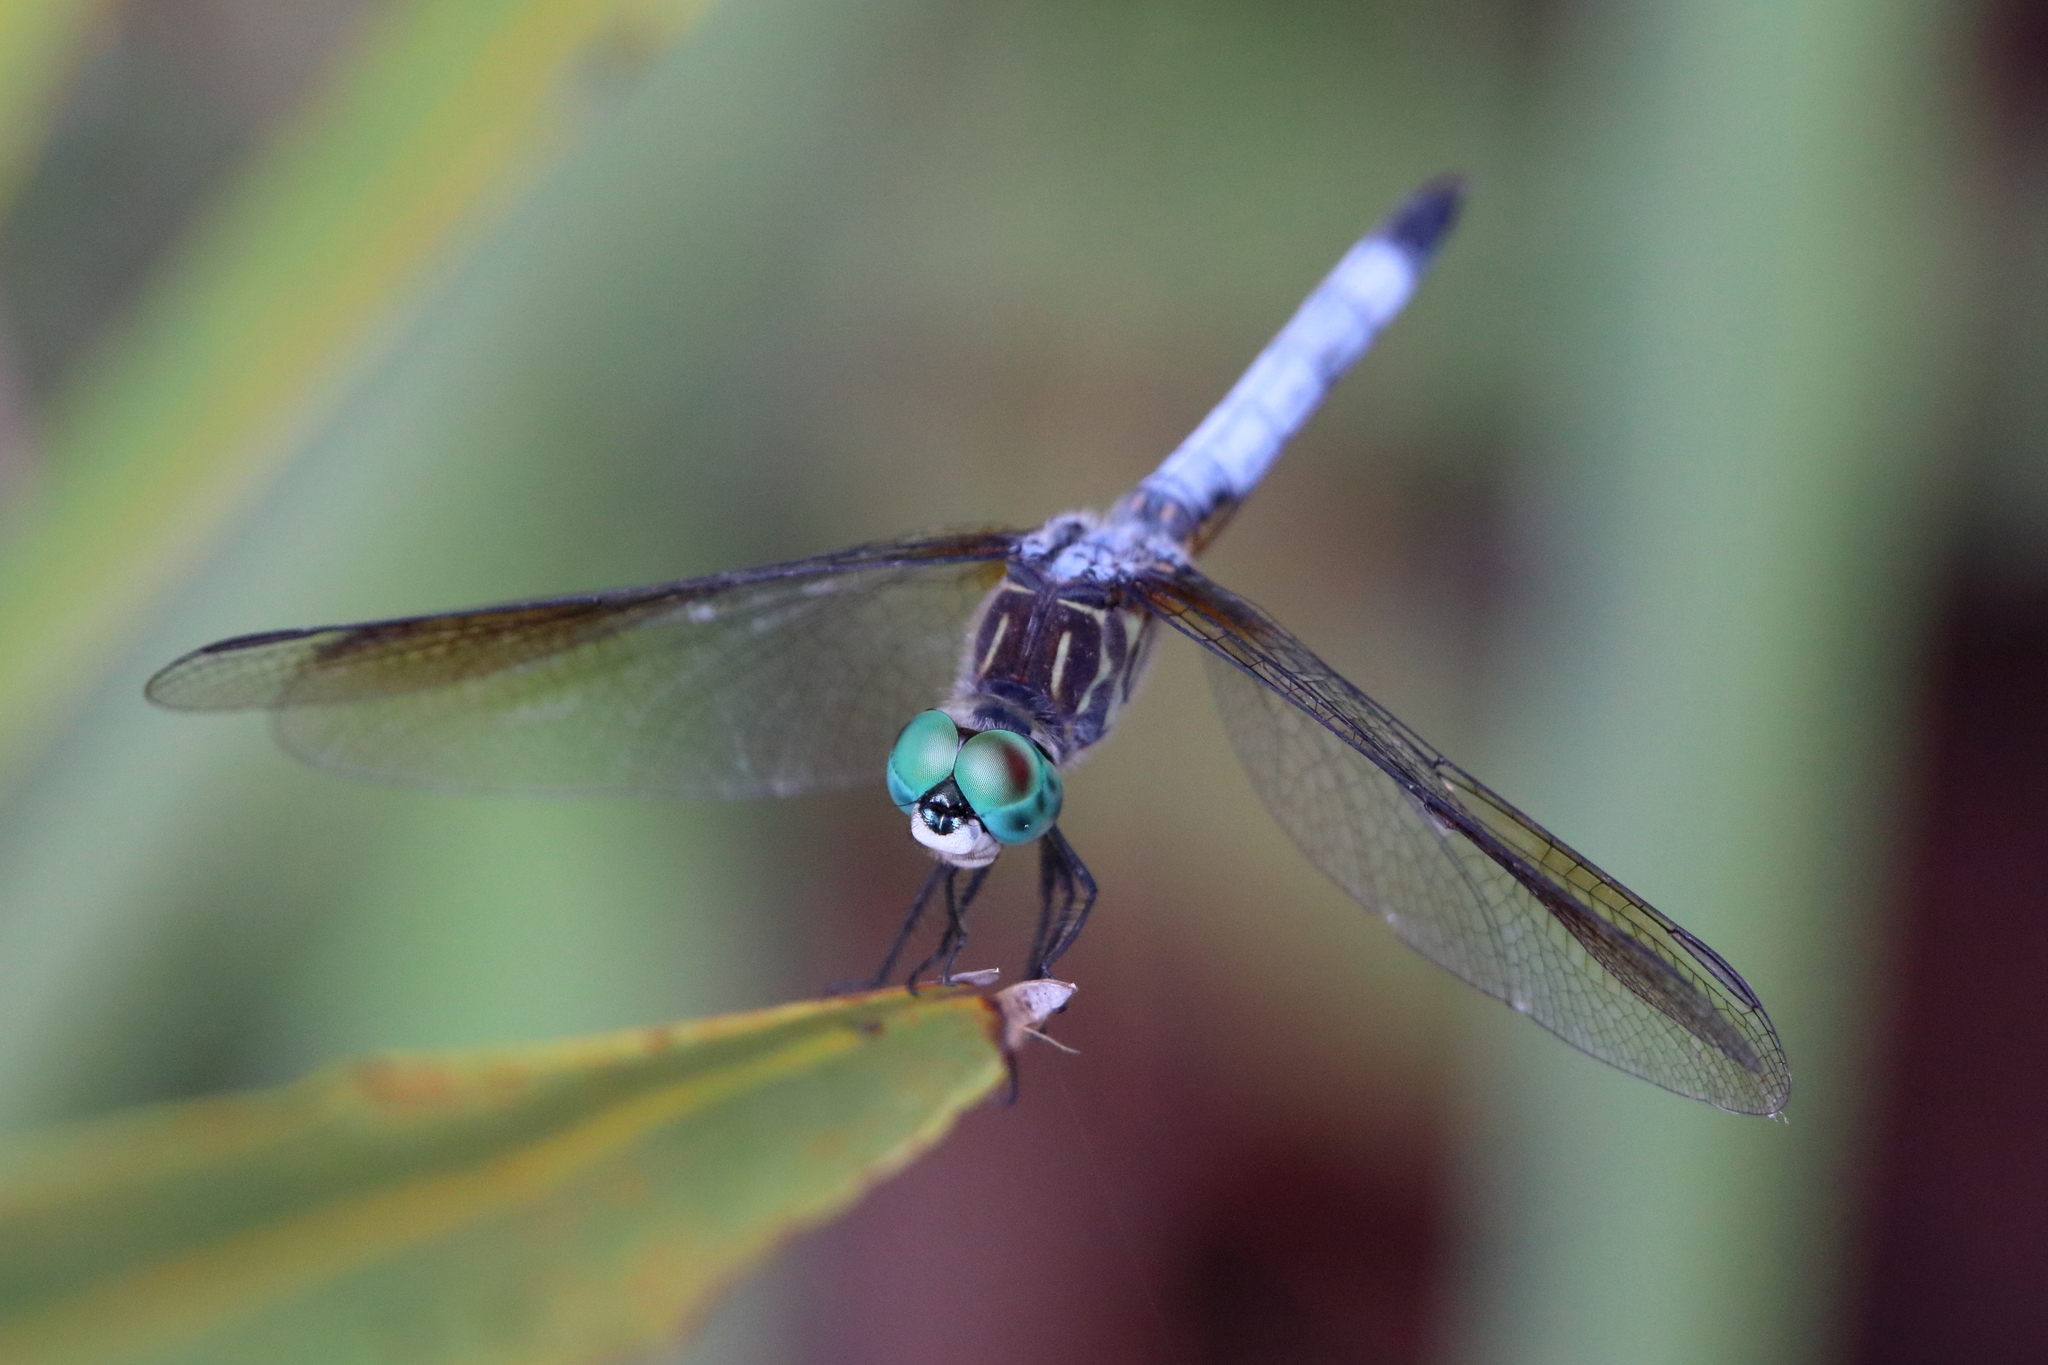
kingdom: Animalia
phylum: Arthropoda
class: Insecta
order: Odonata
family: Libellulidae
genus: Pachydiplax
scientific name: Pachydiplax longipennis
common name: Blue dasher
